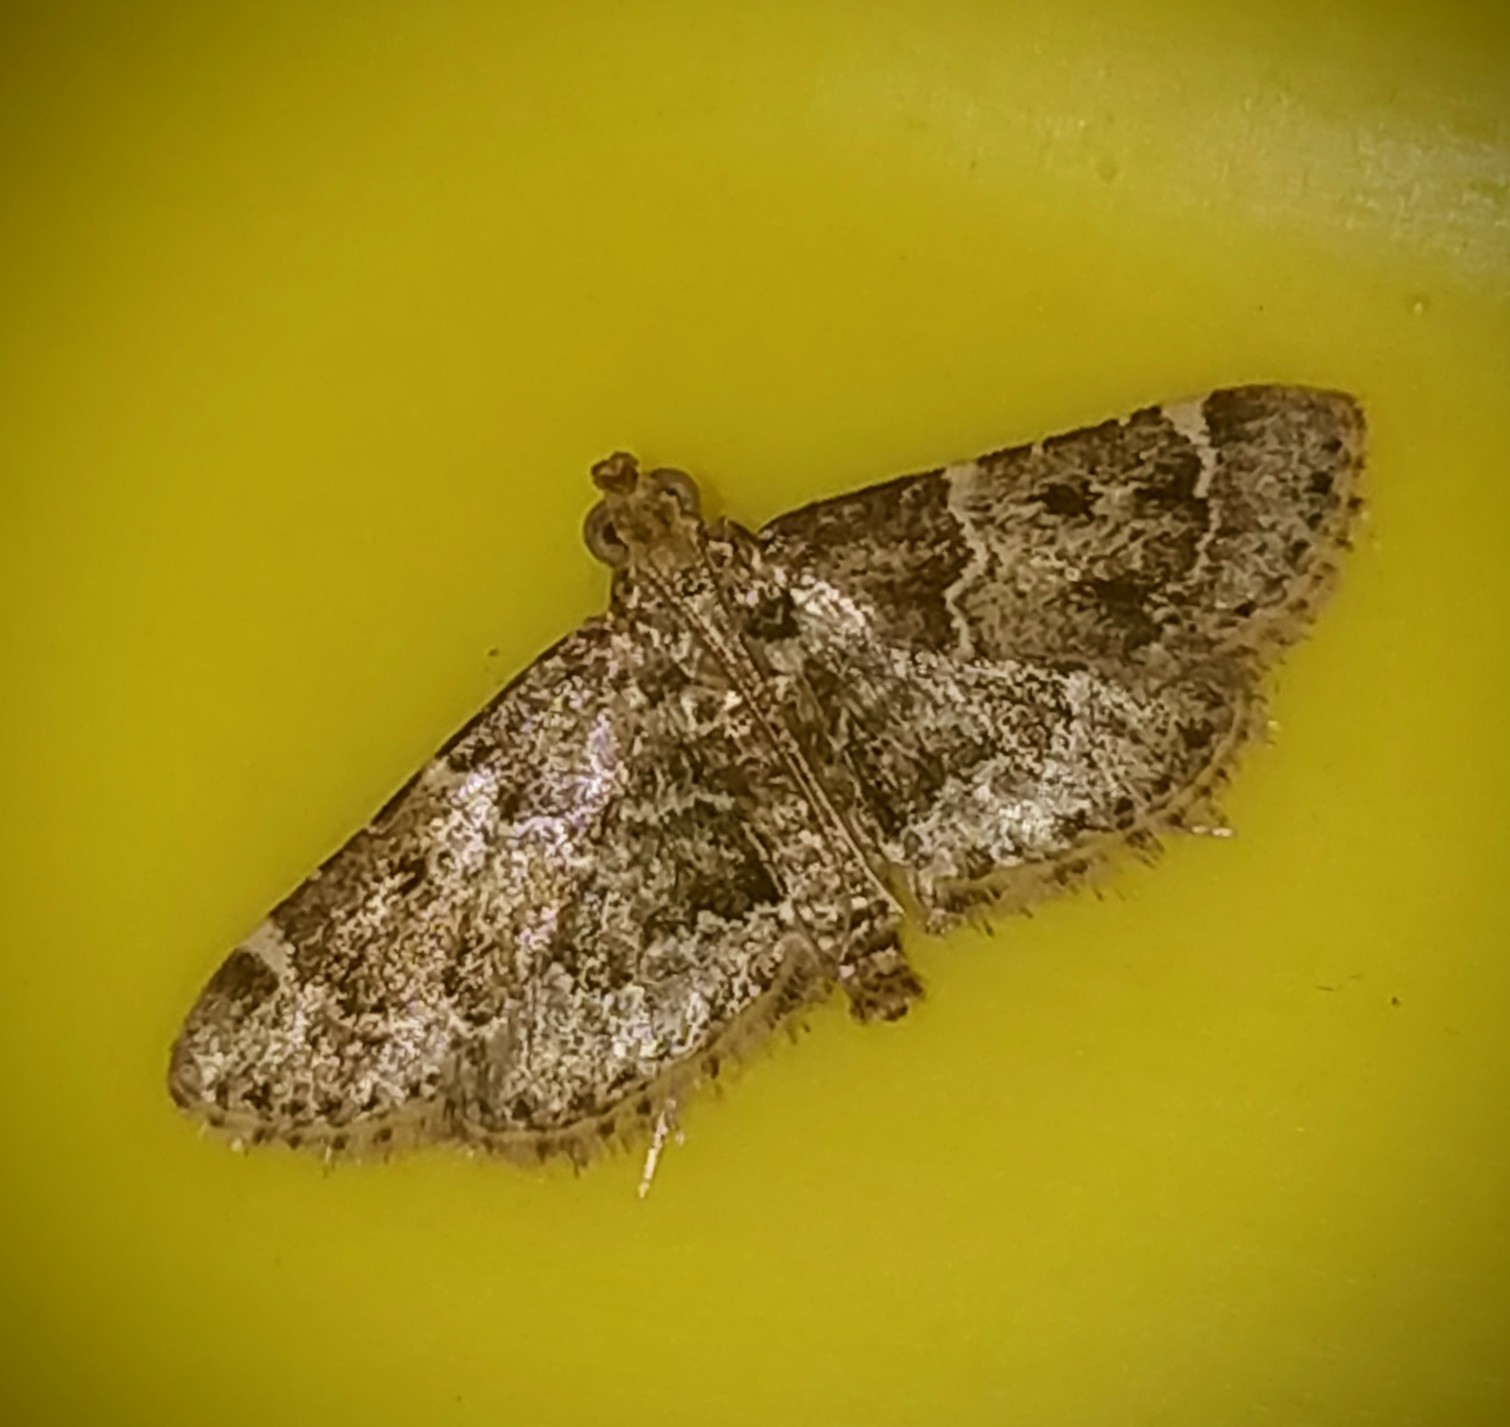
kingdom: Animalia
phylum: Arthropoda
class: Insecta
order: Lepidoptera
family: Pyralidae
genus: Pyralis
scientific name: Pyralis manihotalis
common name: Moth
